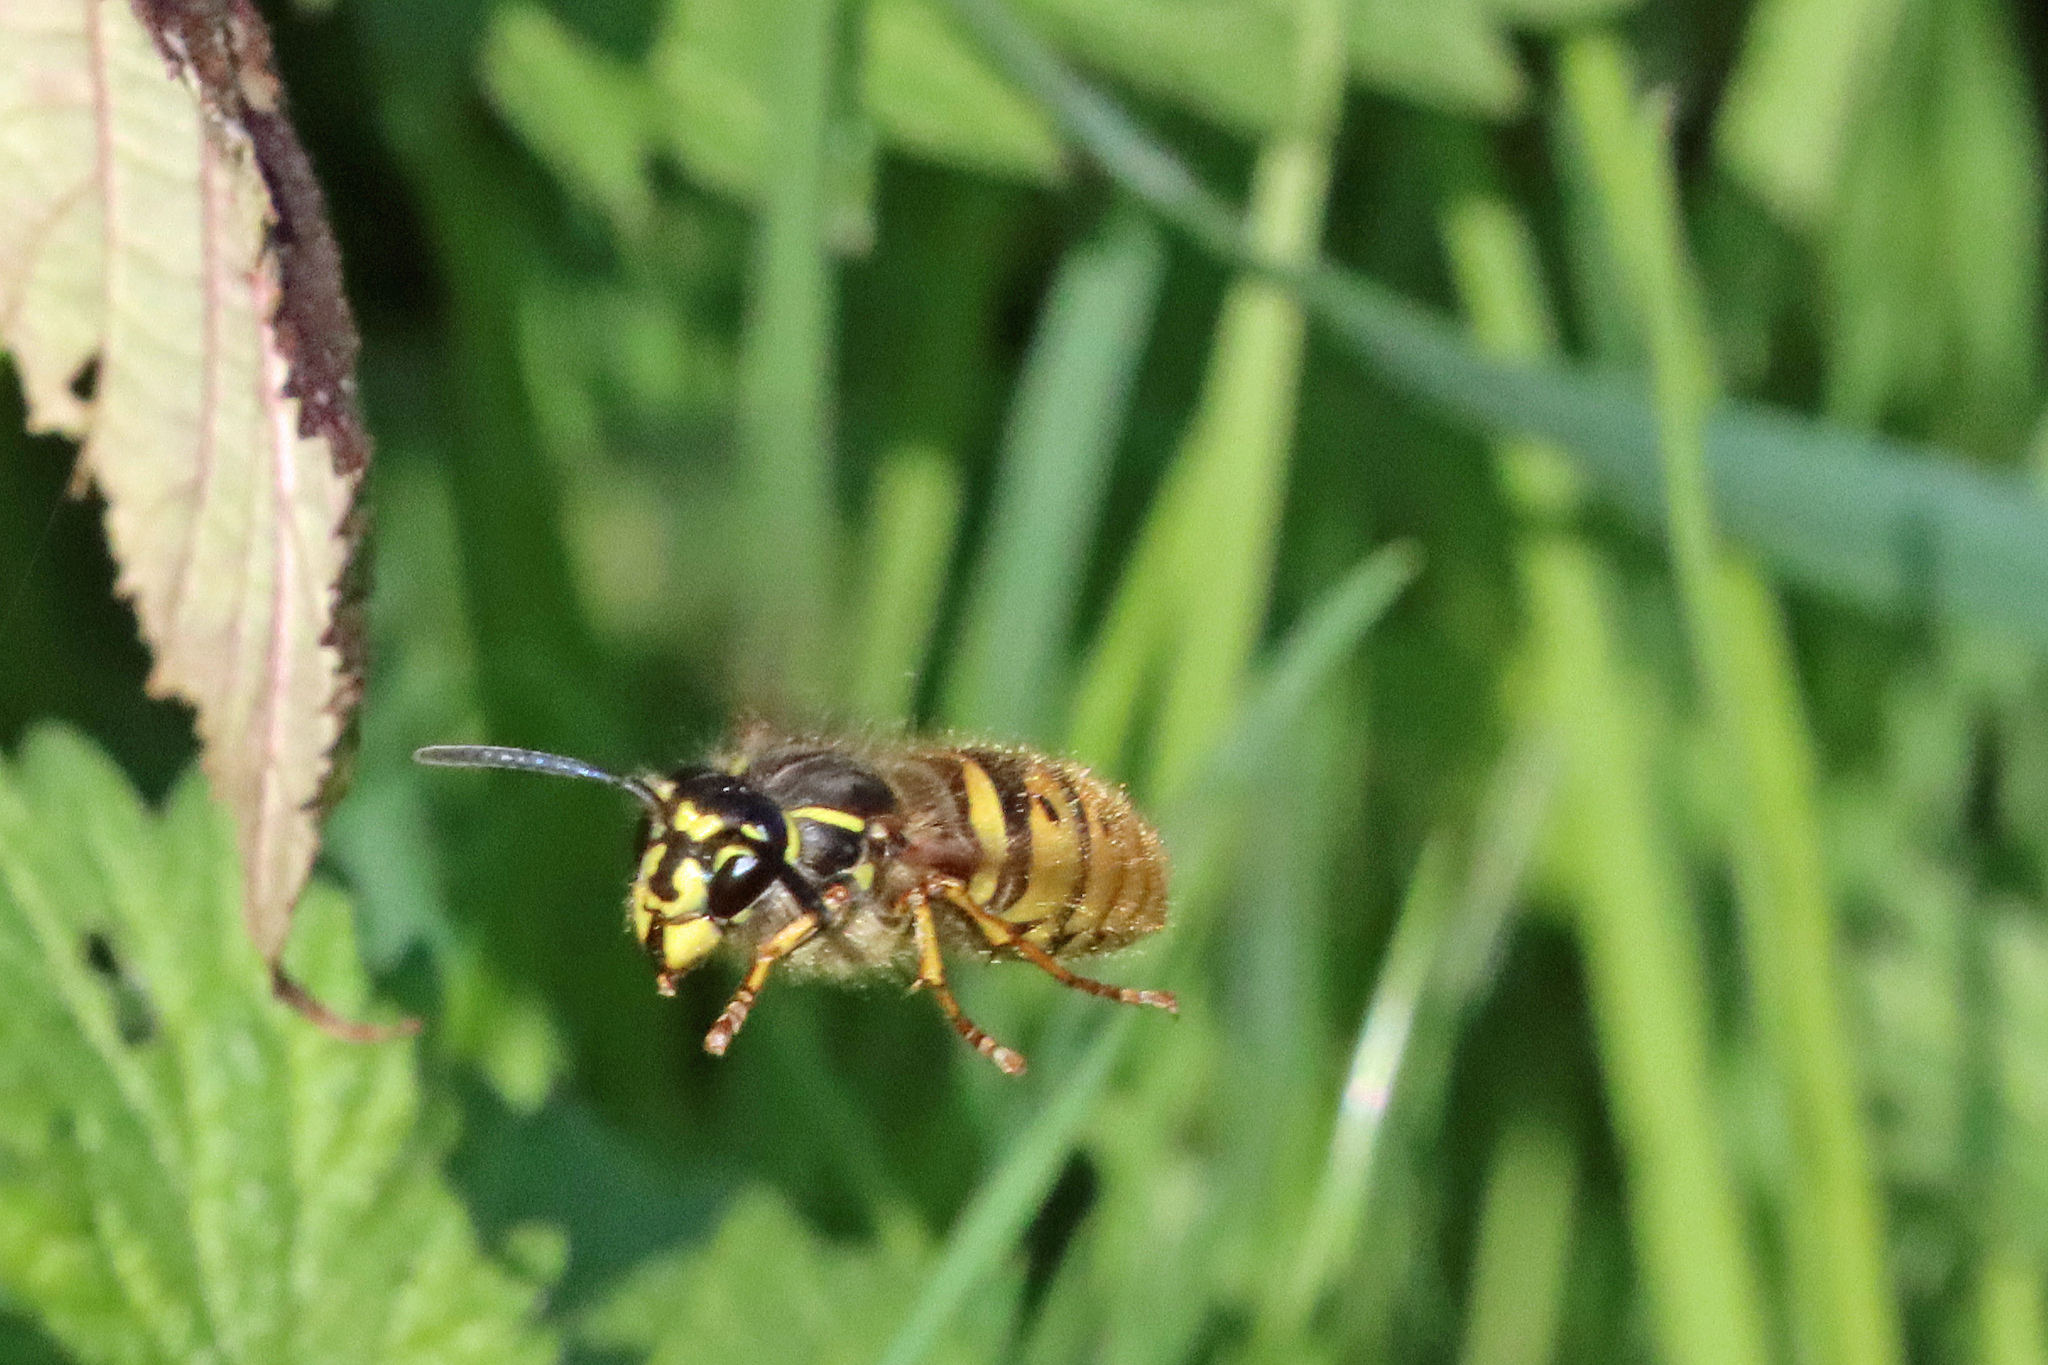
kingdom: Animalia
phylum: Arthropoda
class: Insecta
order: Hymenoptera
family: Vespidae
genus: Vespula
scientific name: Vespula vulgaris
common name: Common wasp
